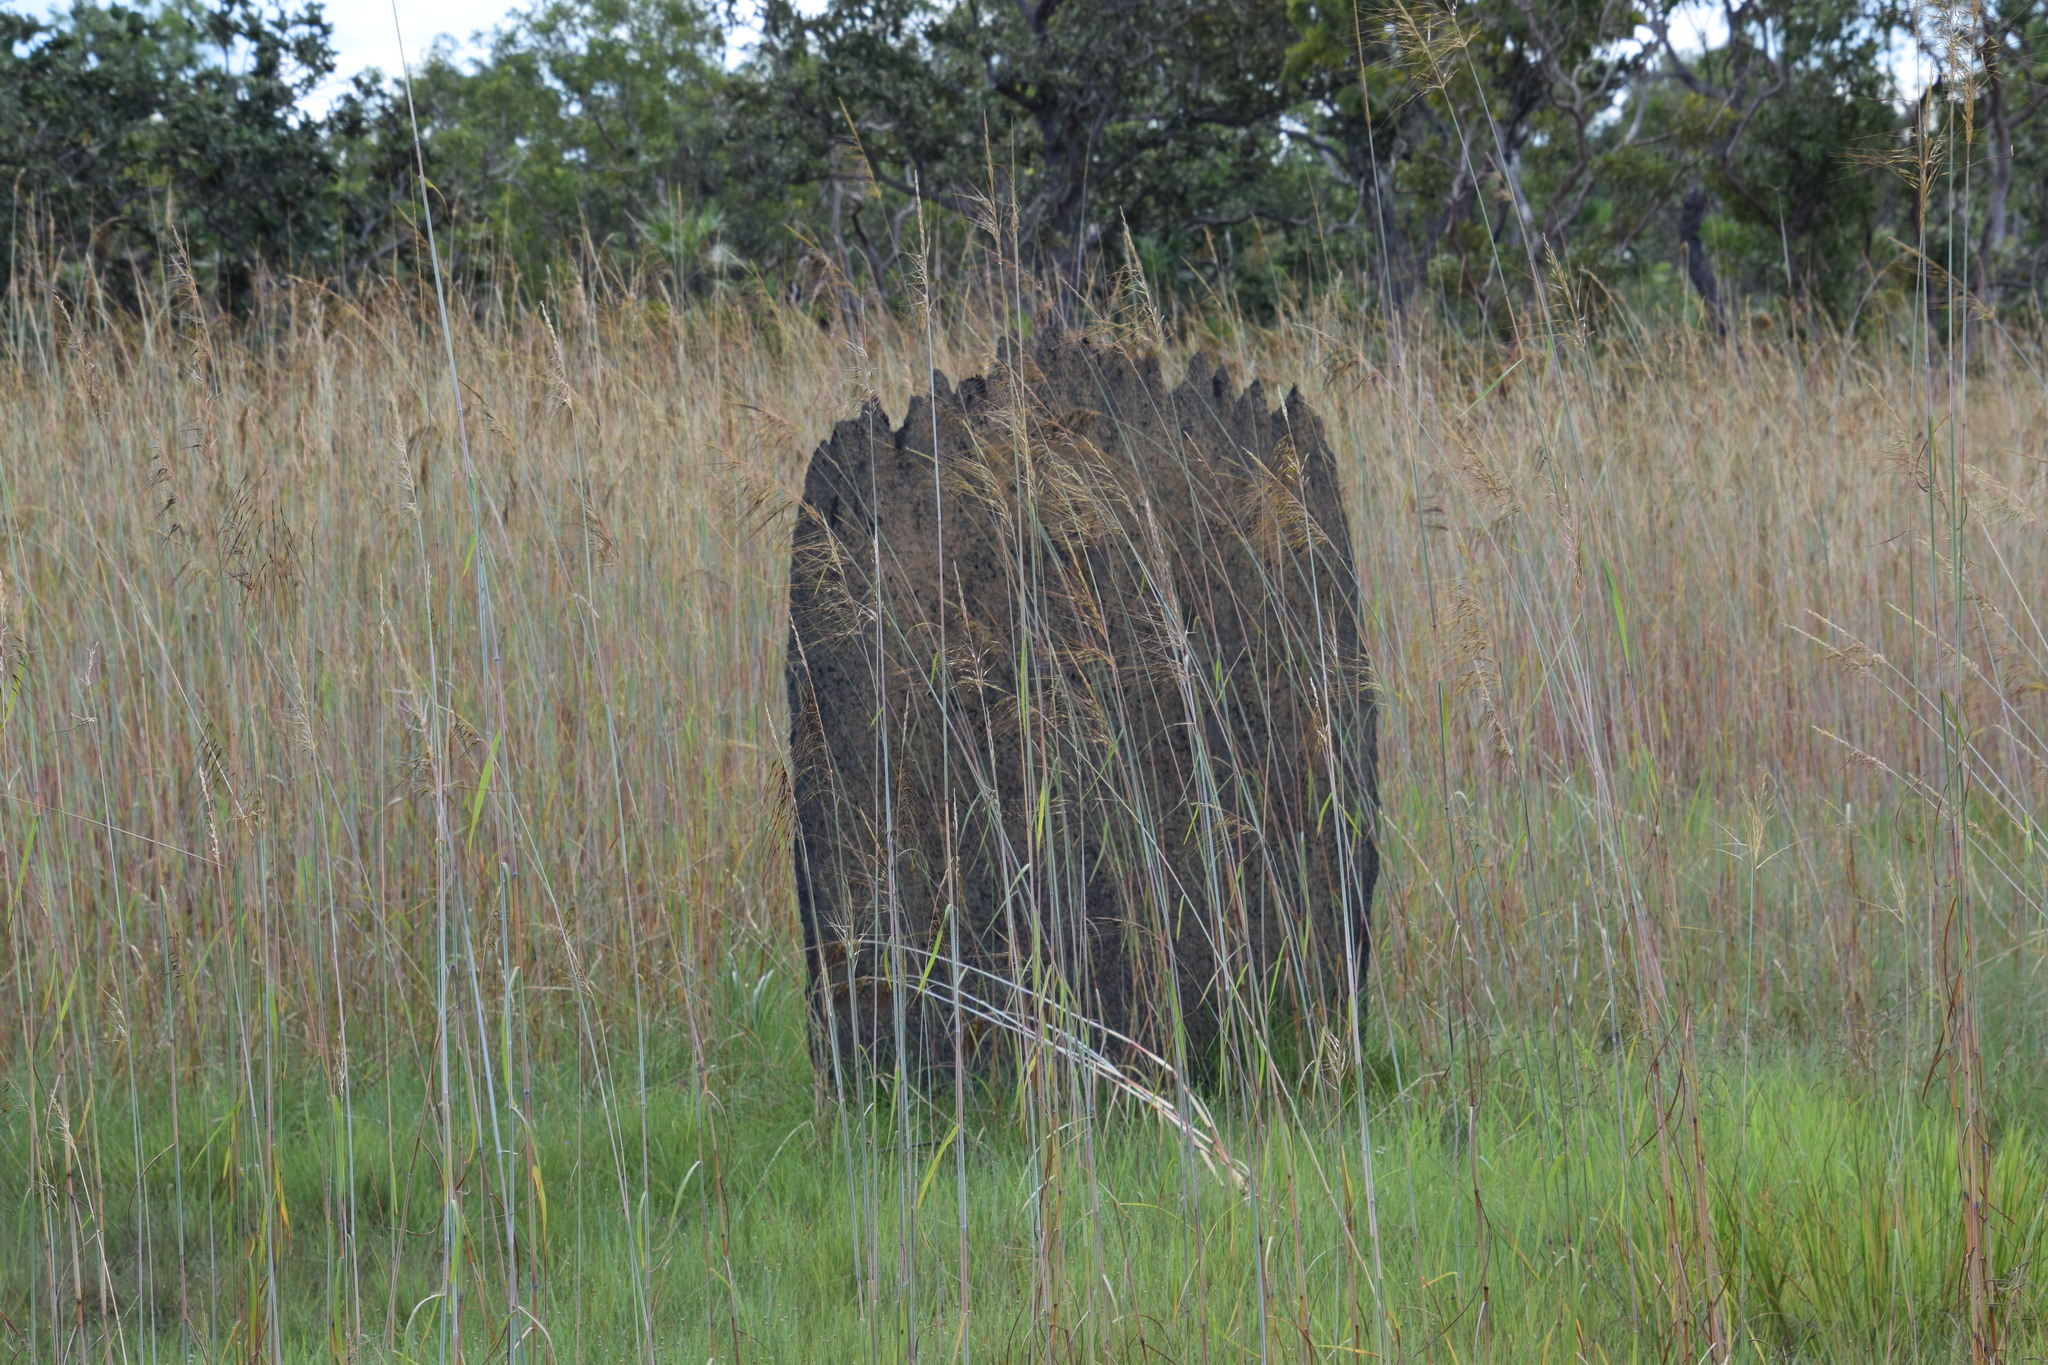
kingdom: Animalia
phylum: Arthropoda
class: Insecta
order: Blattodea
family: Termitidae
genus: Amitermes
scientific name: Amitermes meridionalis
